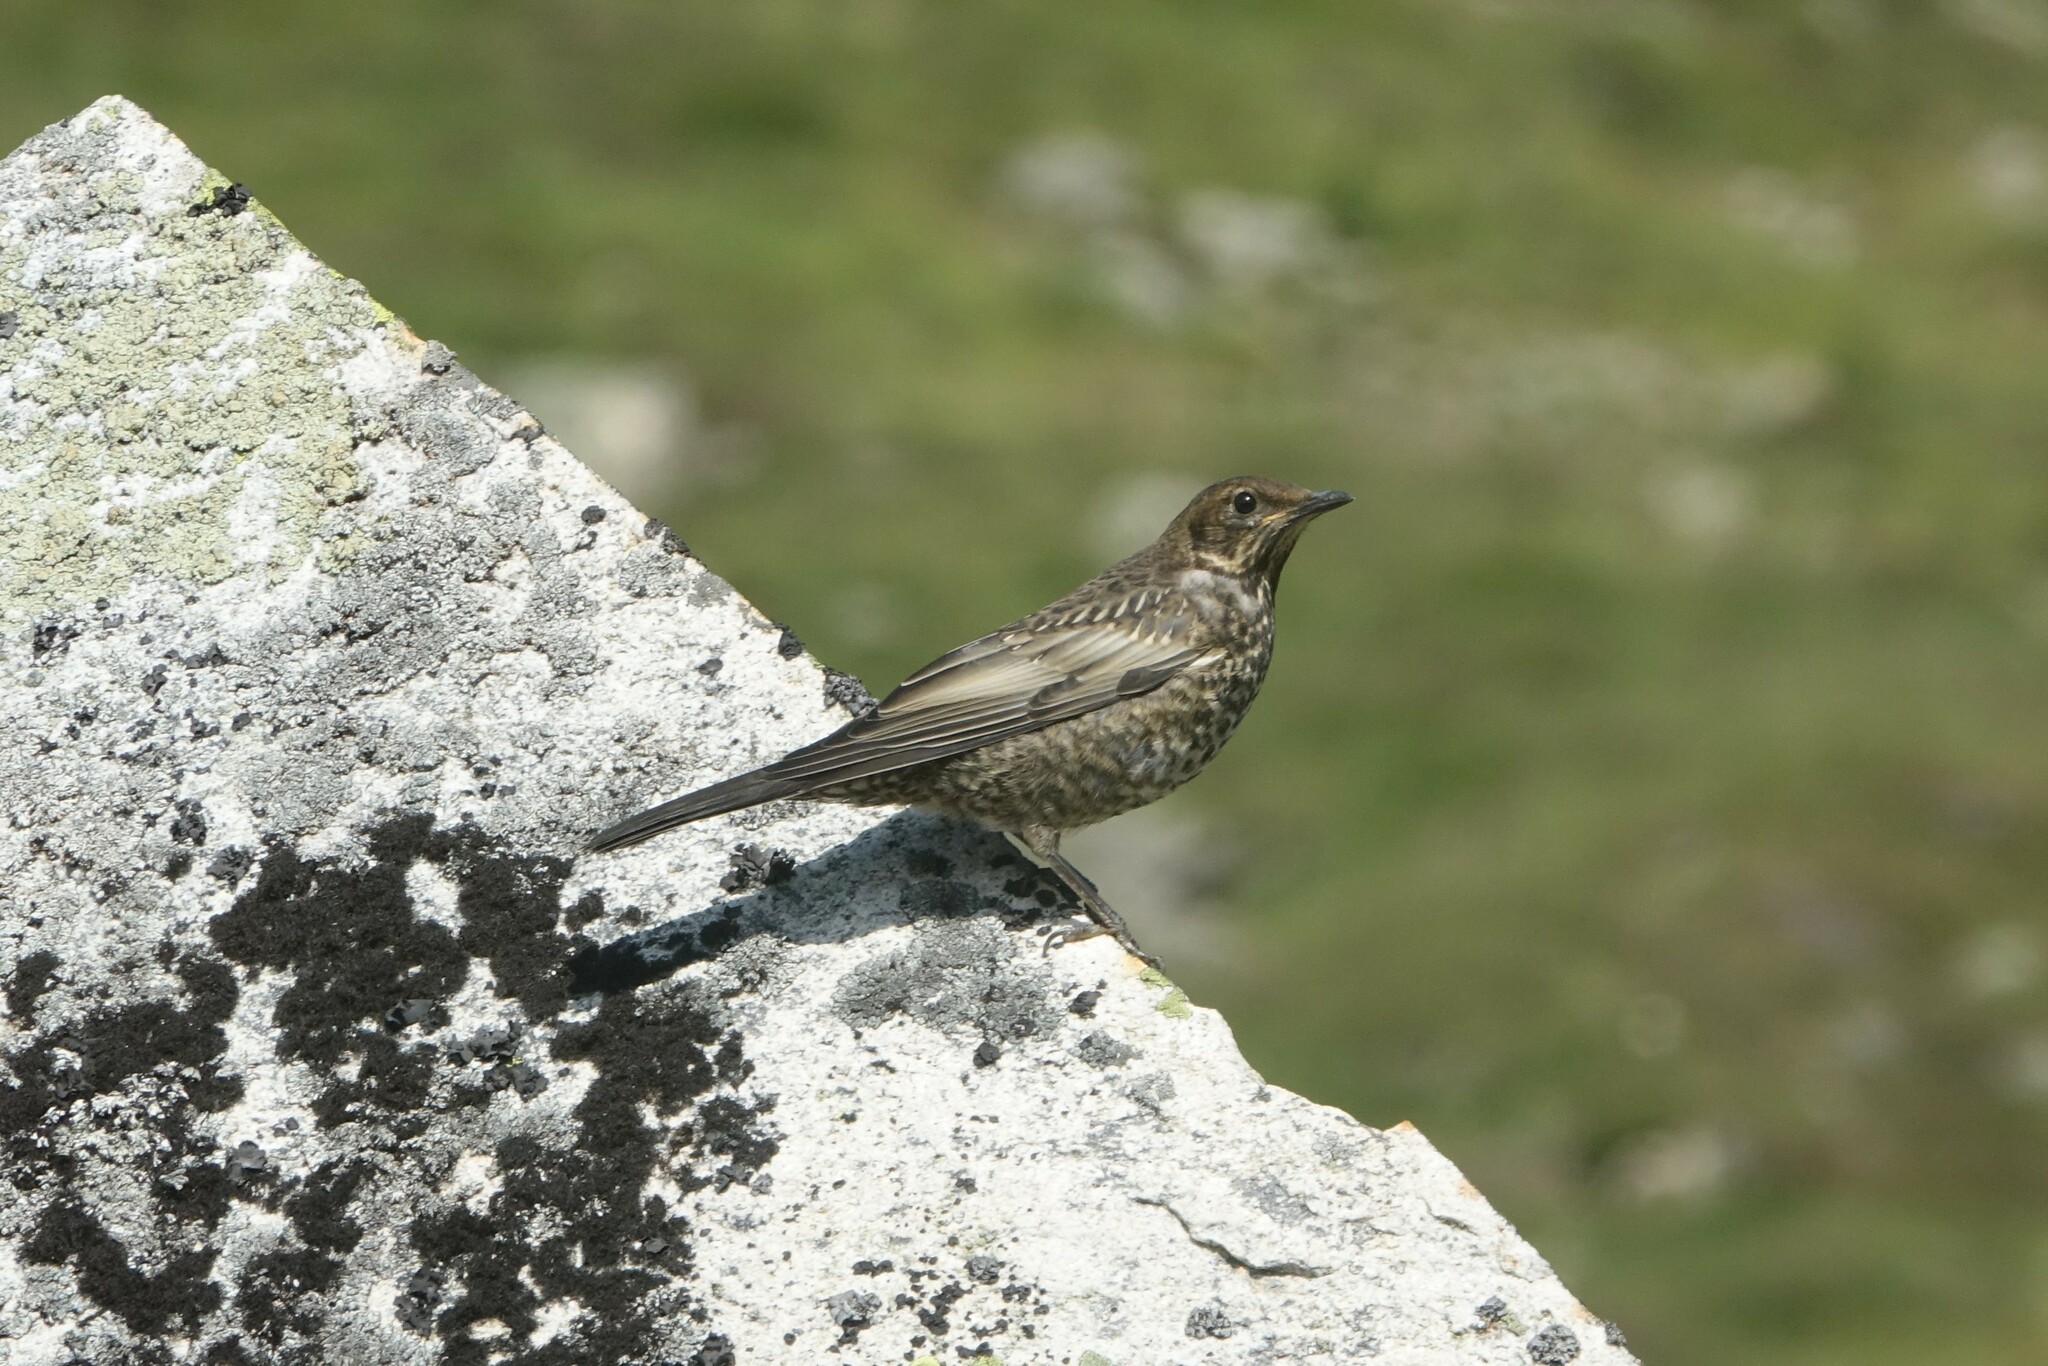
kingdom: Animalia
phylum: Chordata
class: Aves
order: Passeriformes
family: Turdidae
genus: Turdus
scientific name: Turdus torquatus
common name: Ring ouzel
